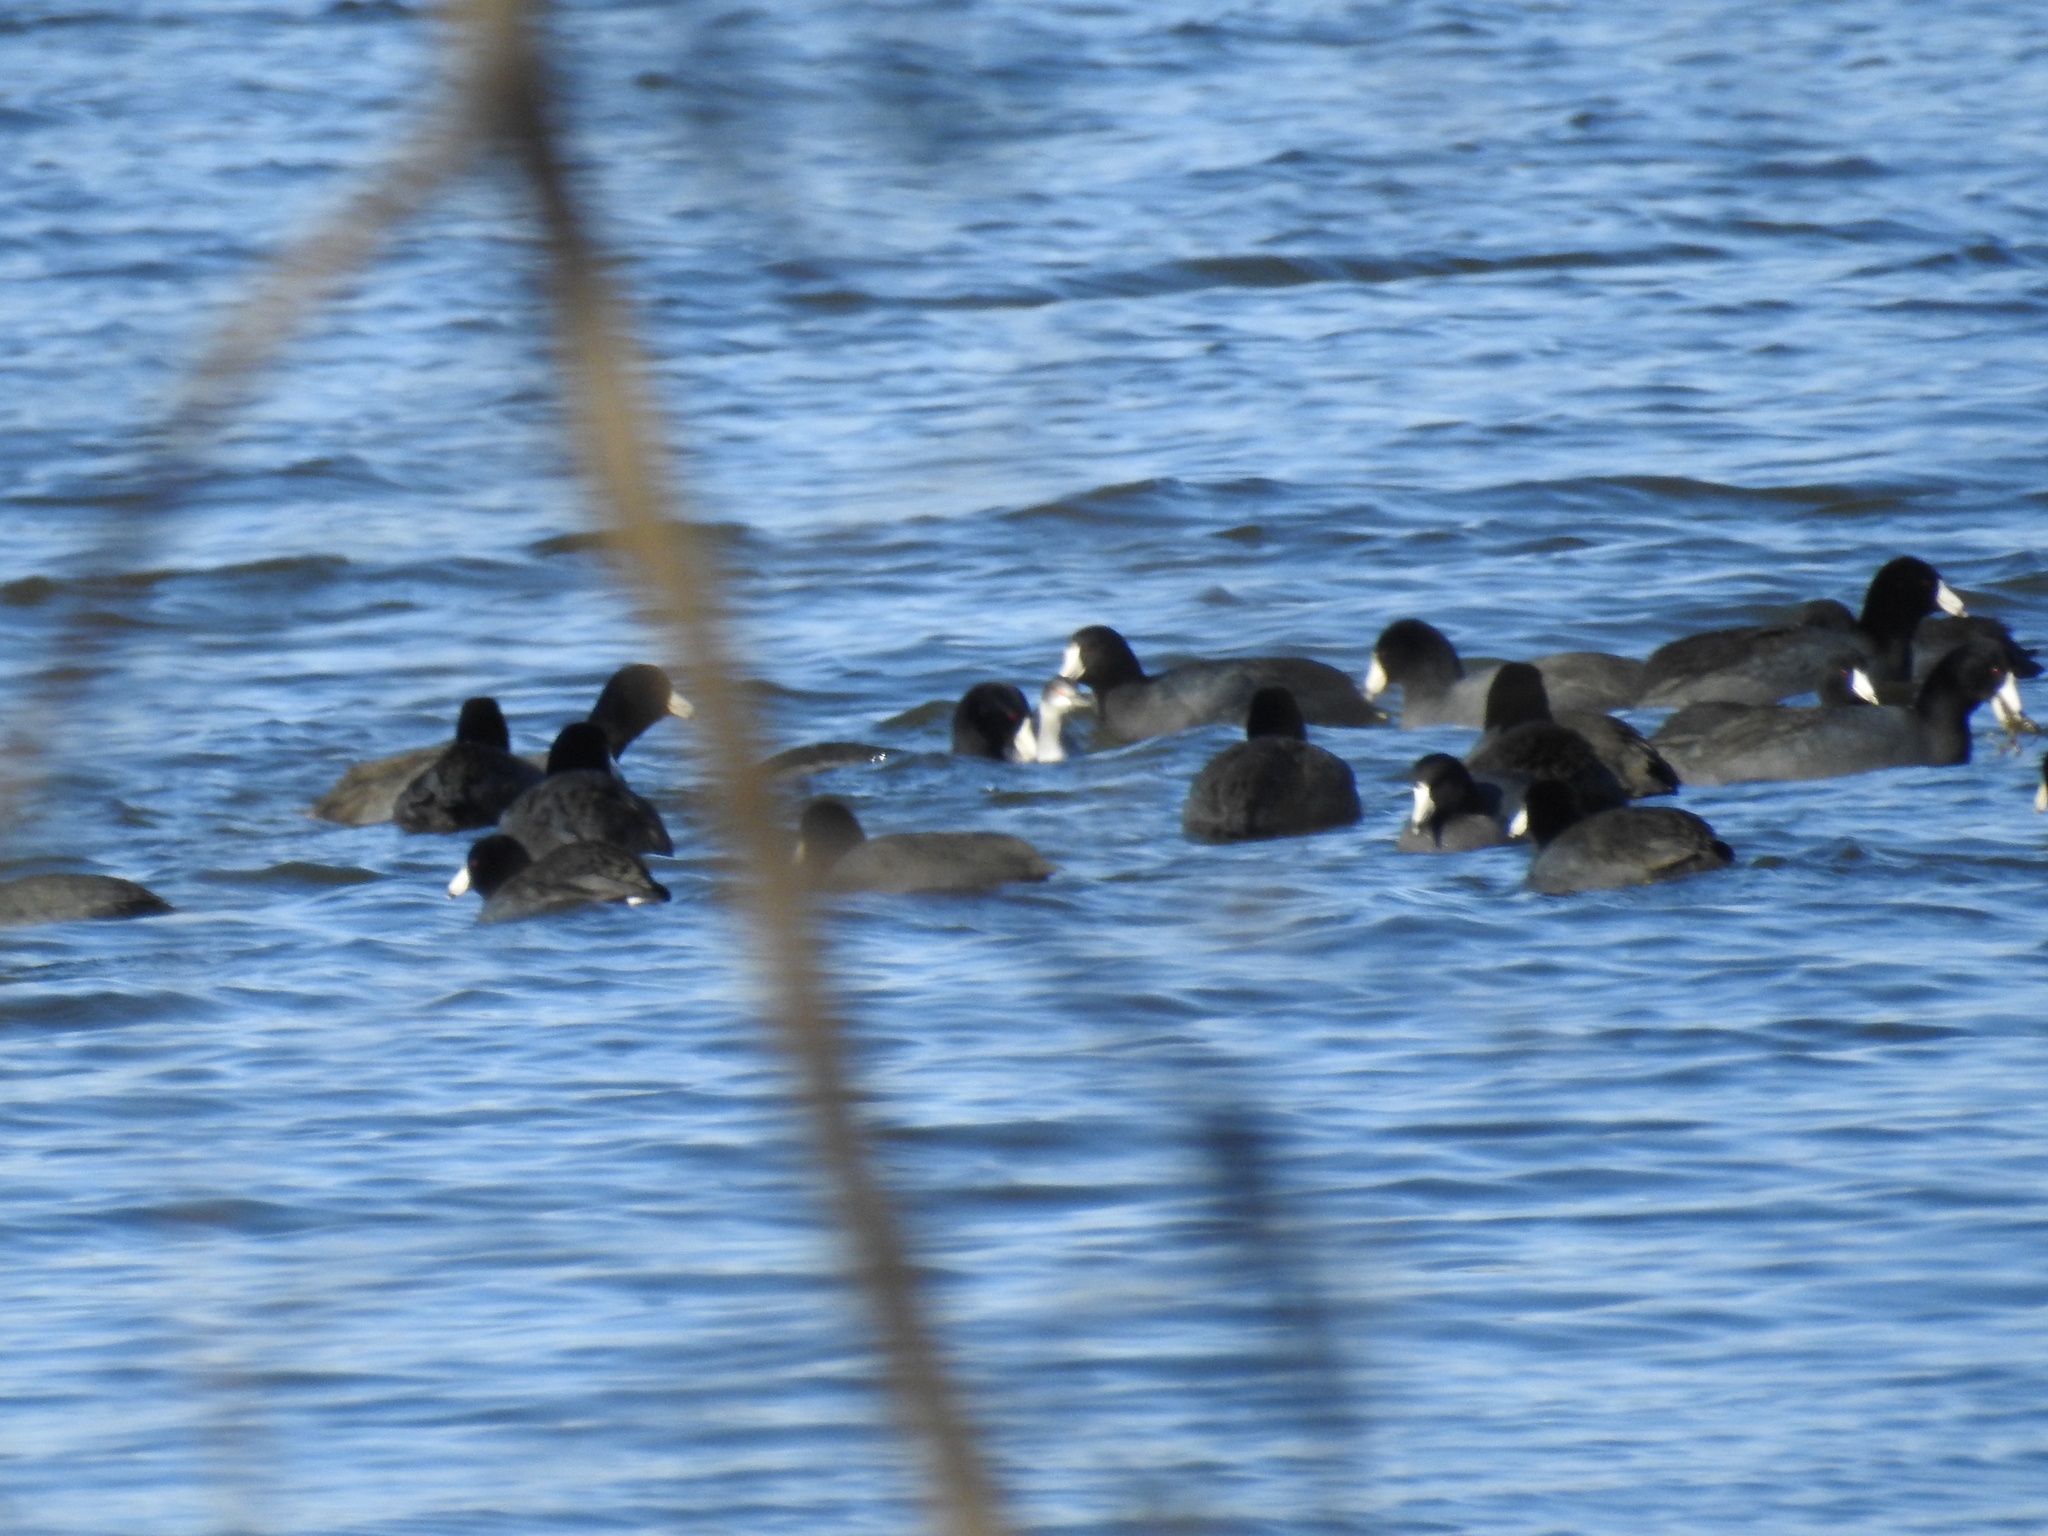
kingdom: Animalia
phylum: Chordata
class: Aves
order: Gruiformes
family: Rallidae
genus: Fulica
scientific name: Fulica americana
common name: American coot
